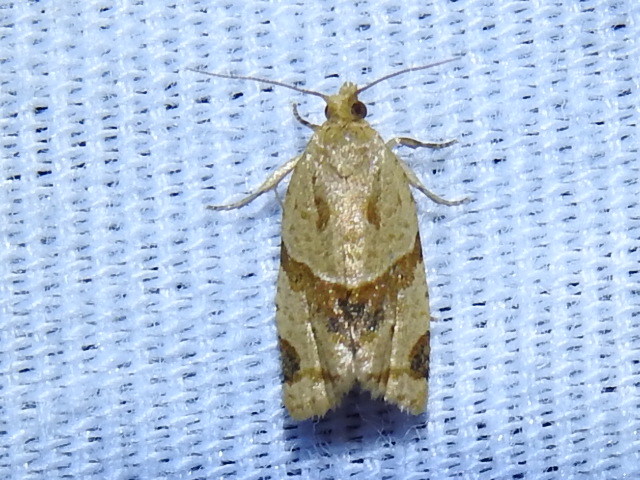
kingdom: Animalia
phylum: Arthropoda
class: Insecta
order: Lepidoptera
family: Tortricidae
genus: Clepsis
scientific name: Clepsis peritana
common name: Garden tortrix
